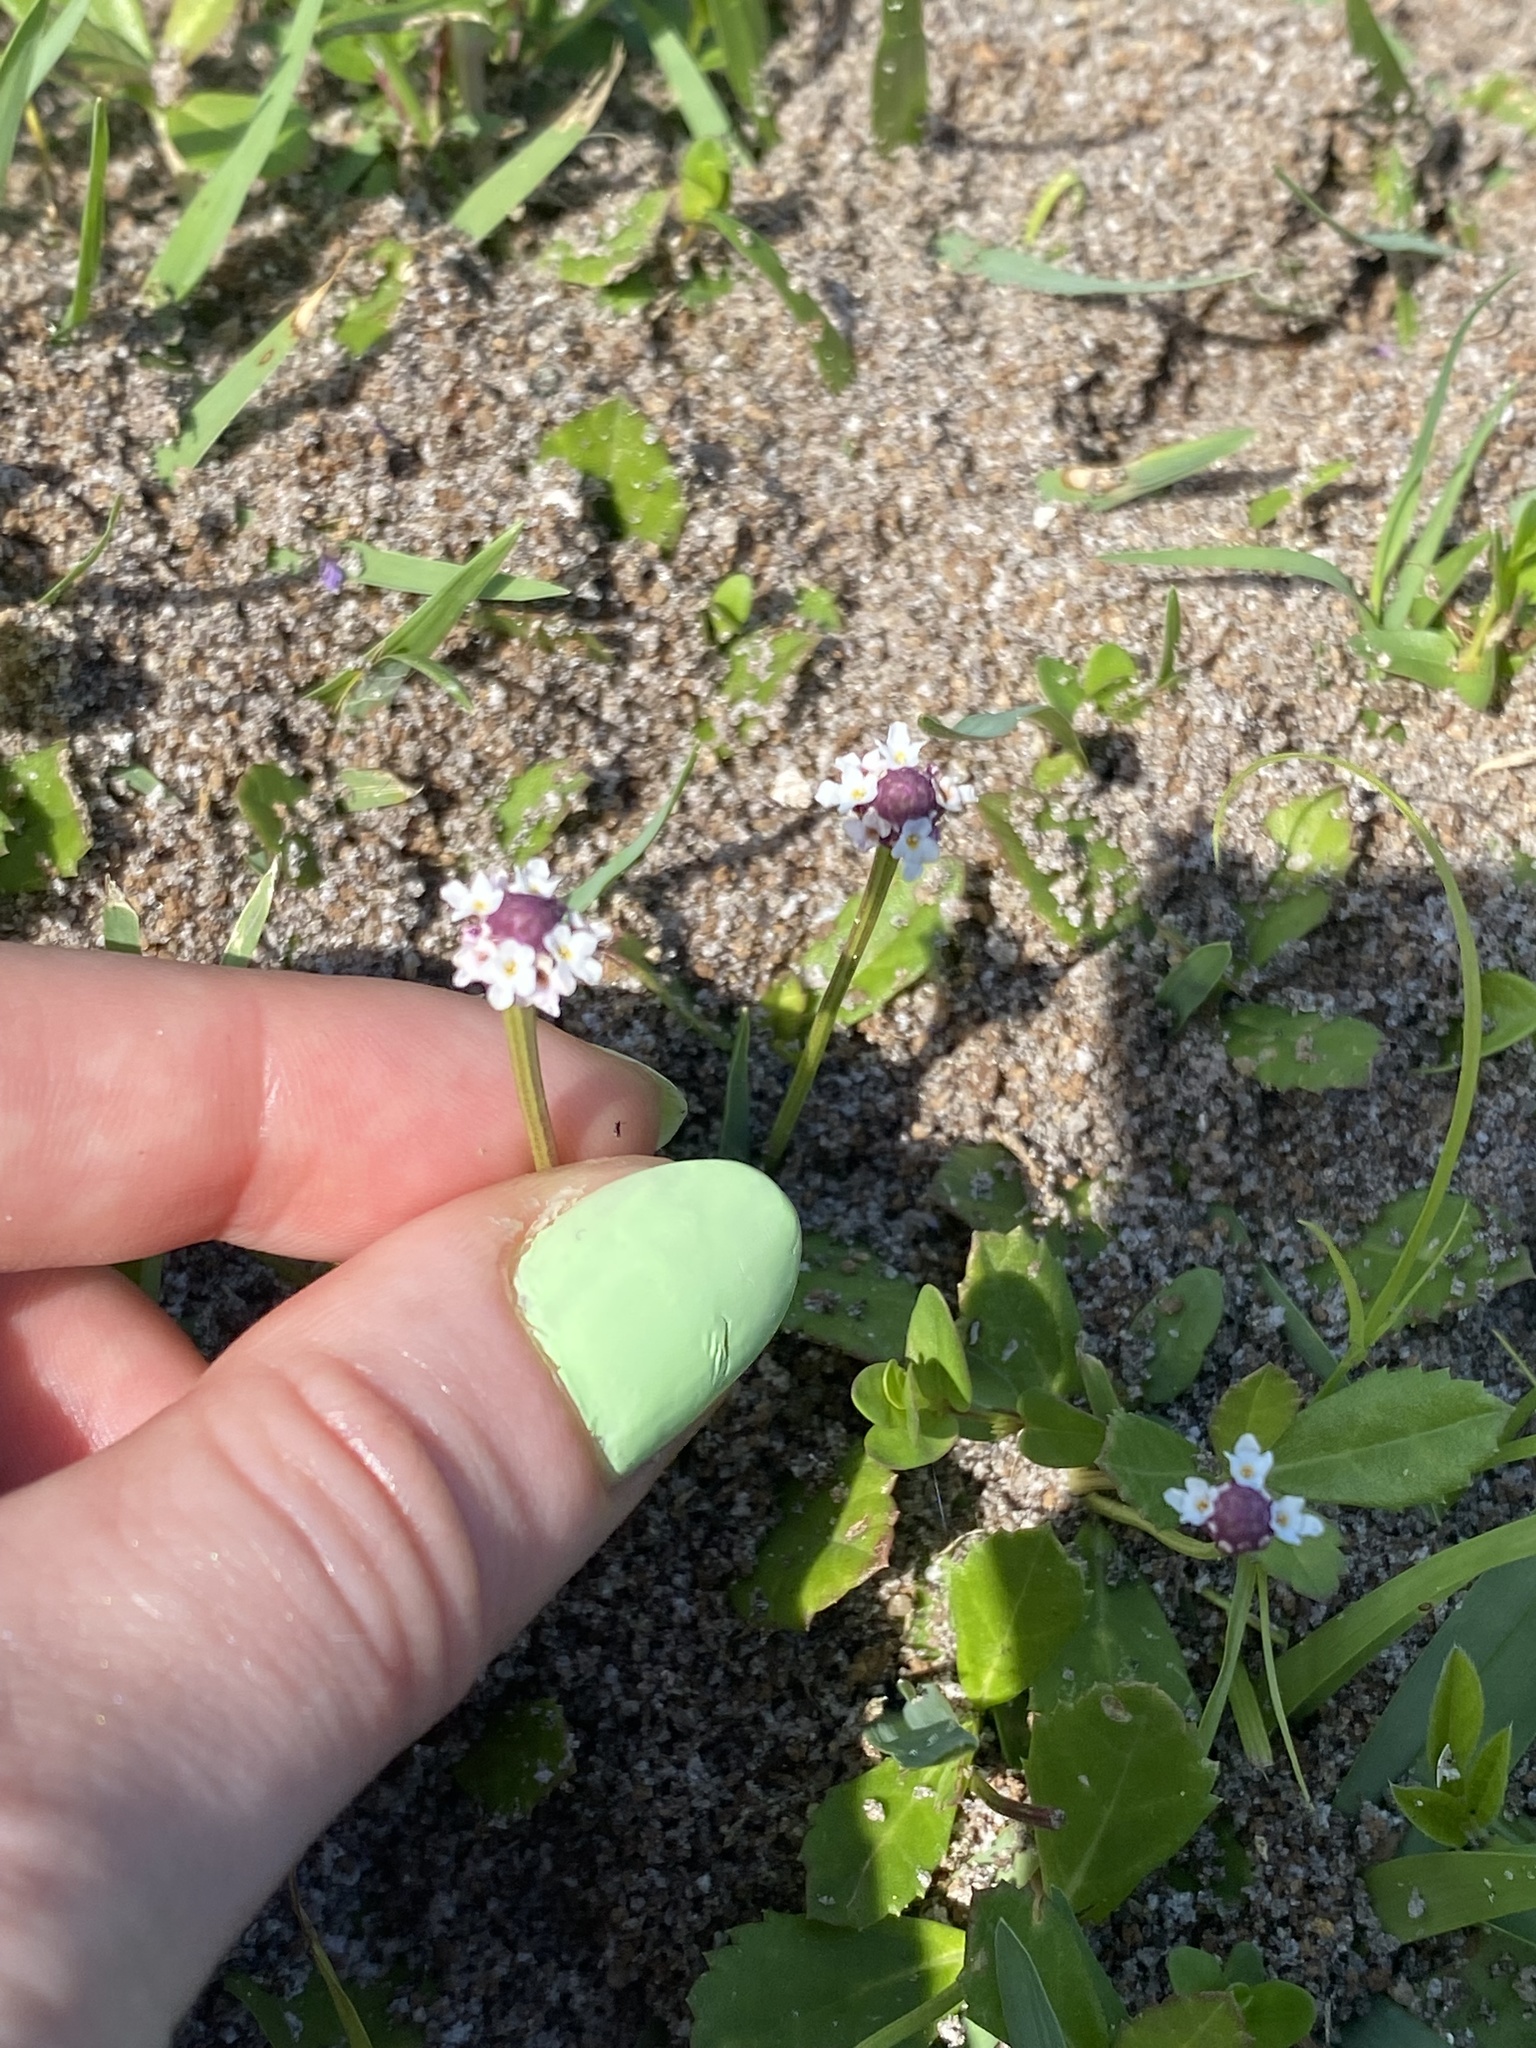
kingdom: Plantae
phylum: Tracheophyta
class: Magnoliopsida
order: Lamiales
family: Verbenaceae
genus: Phyla
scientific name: Phyla nodiflora
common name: Frogfruit
